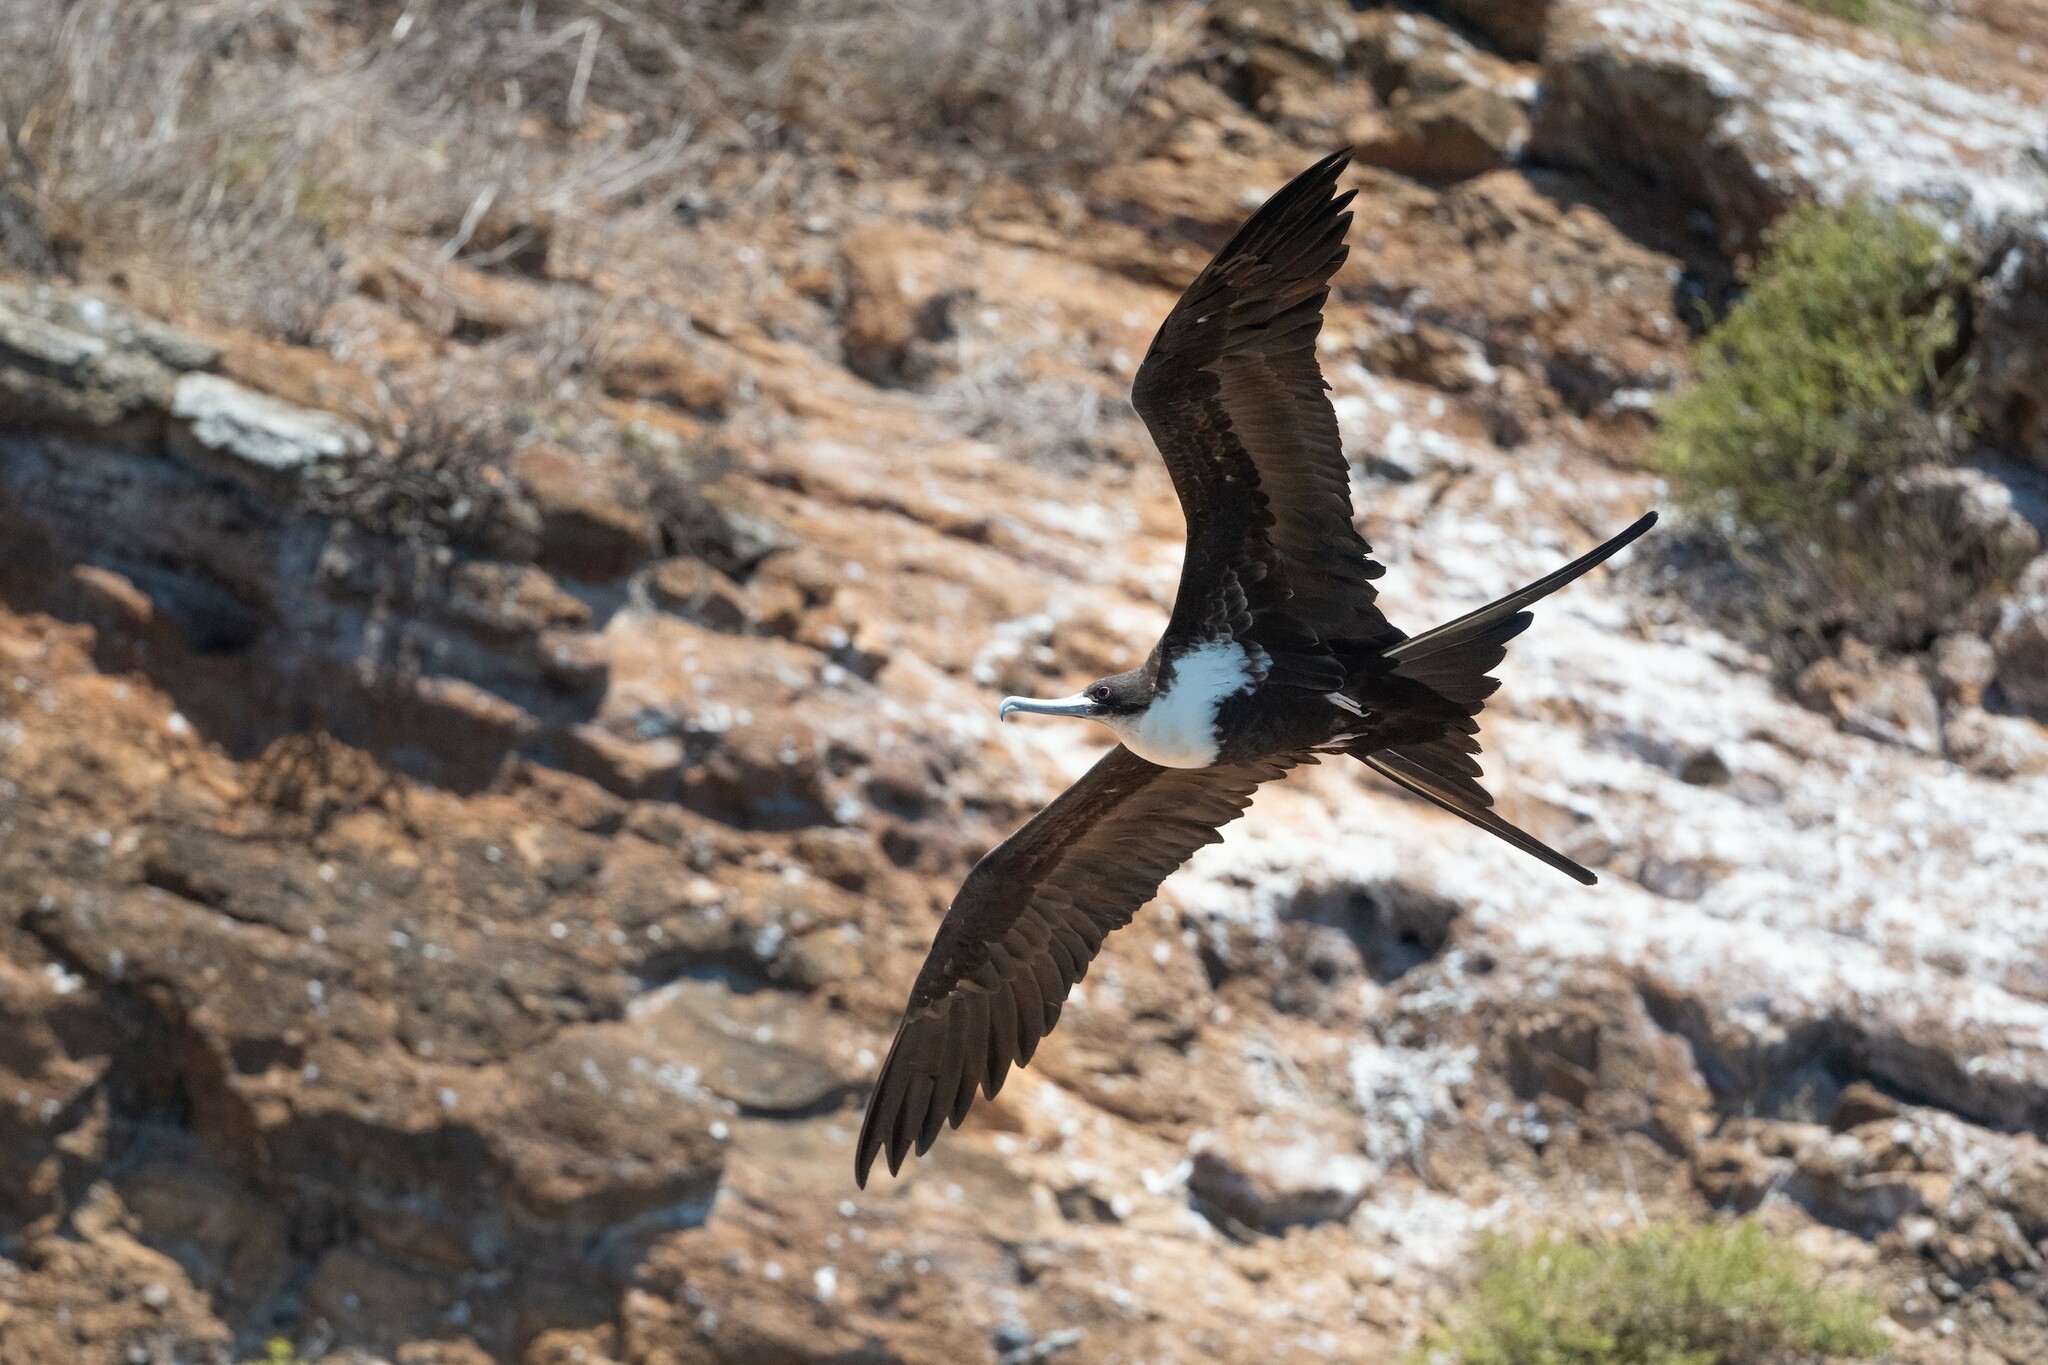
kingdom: Animalia
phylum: Chordata
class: Aves
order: Suliformes
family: Fregatidae
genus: Fregata
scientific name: Fregata minor
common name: Great frigatebird
